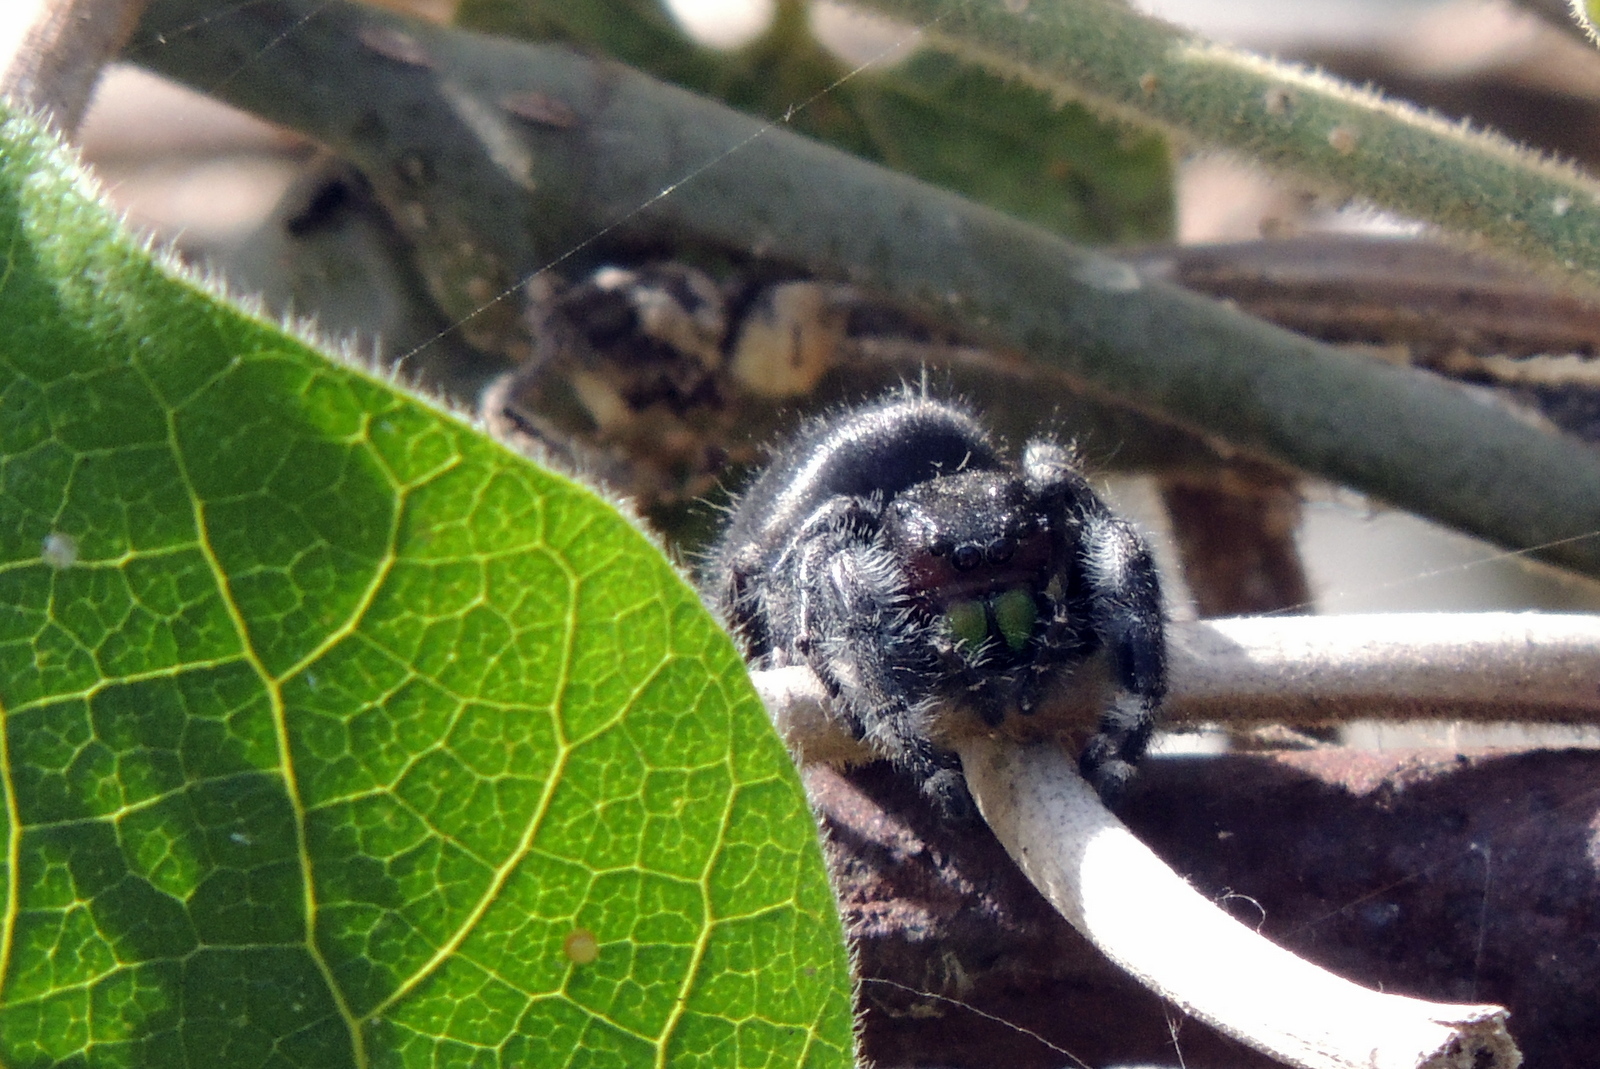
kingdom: Animalia
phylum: Arthropoda
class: Arachnida
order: Araneae
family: Salticidae
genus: Phidippus
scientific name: Phidippus audax
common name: Bold jumper
